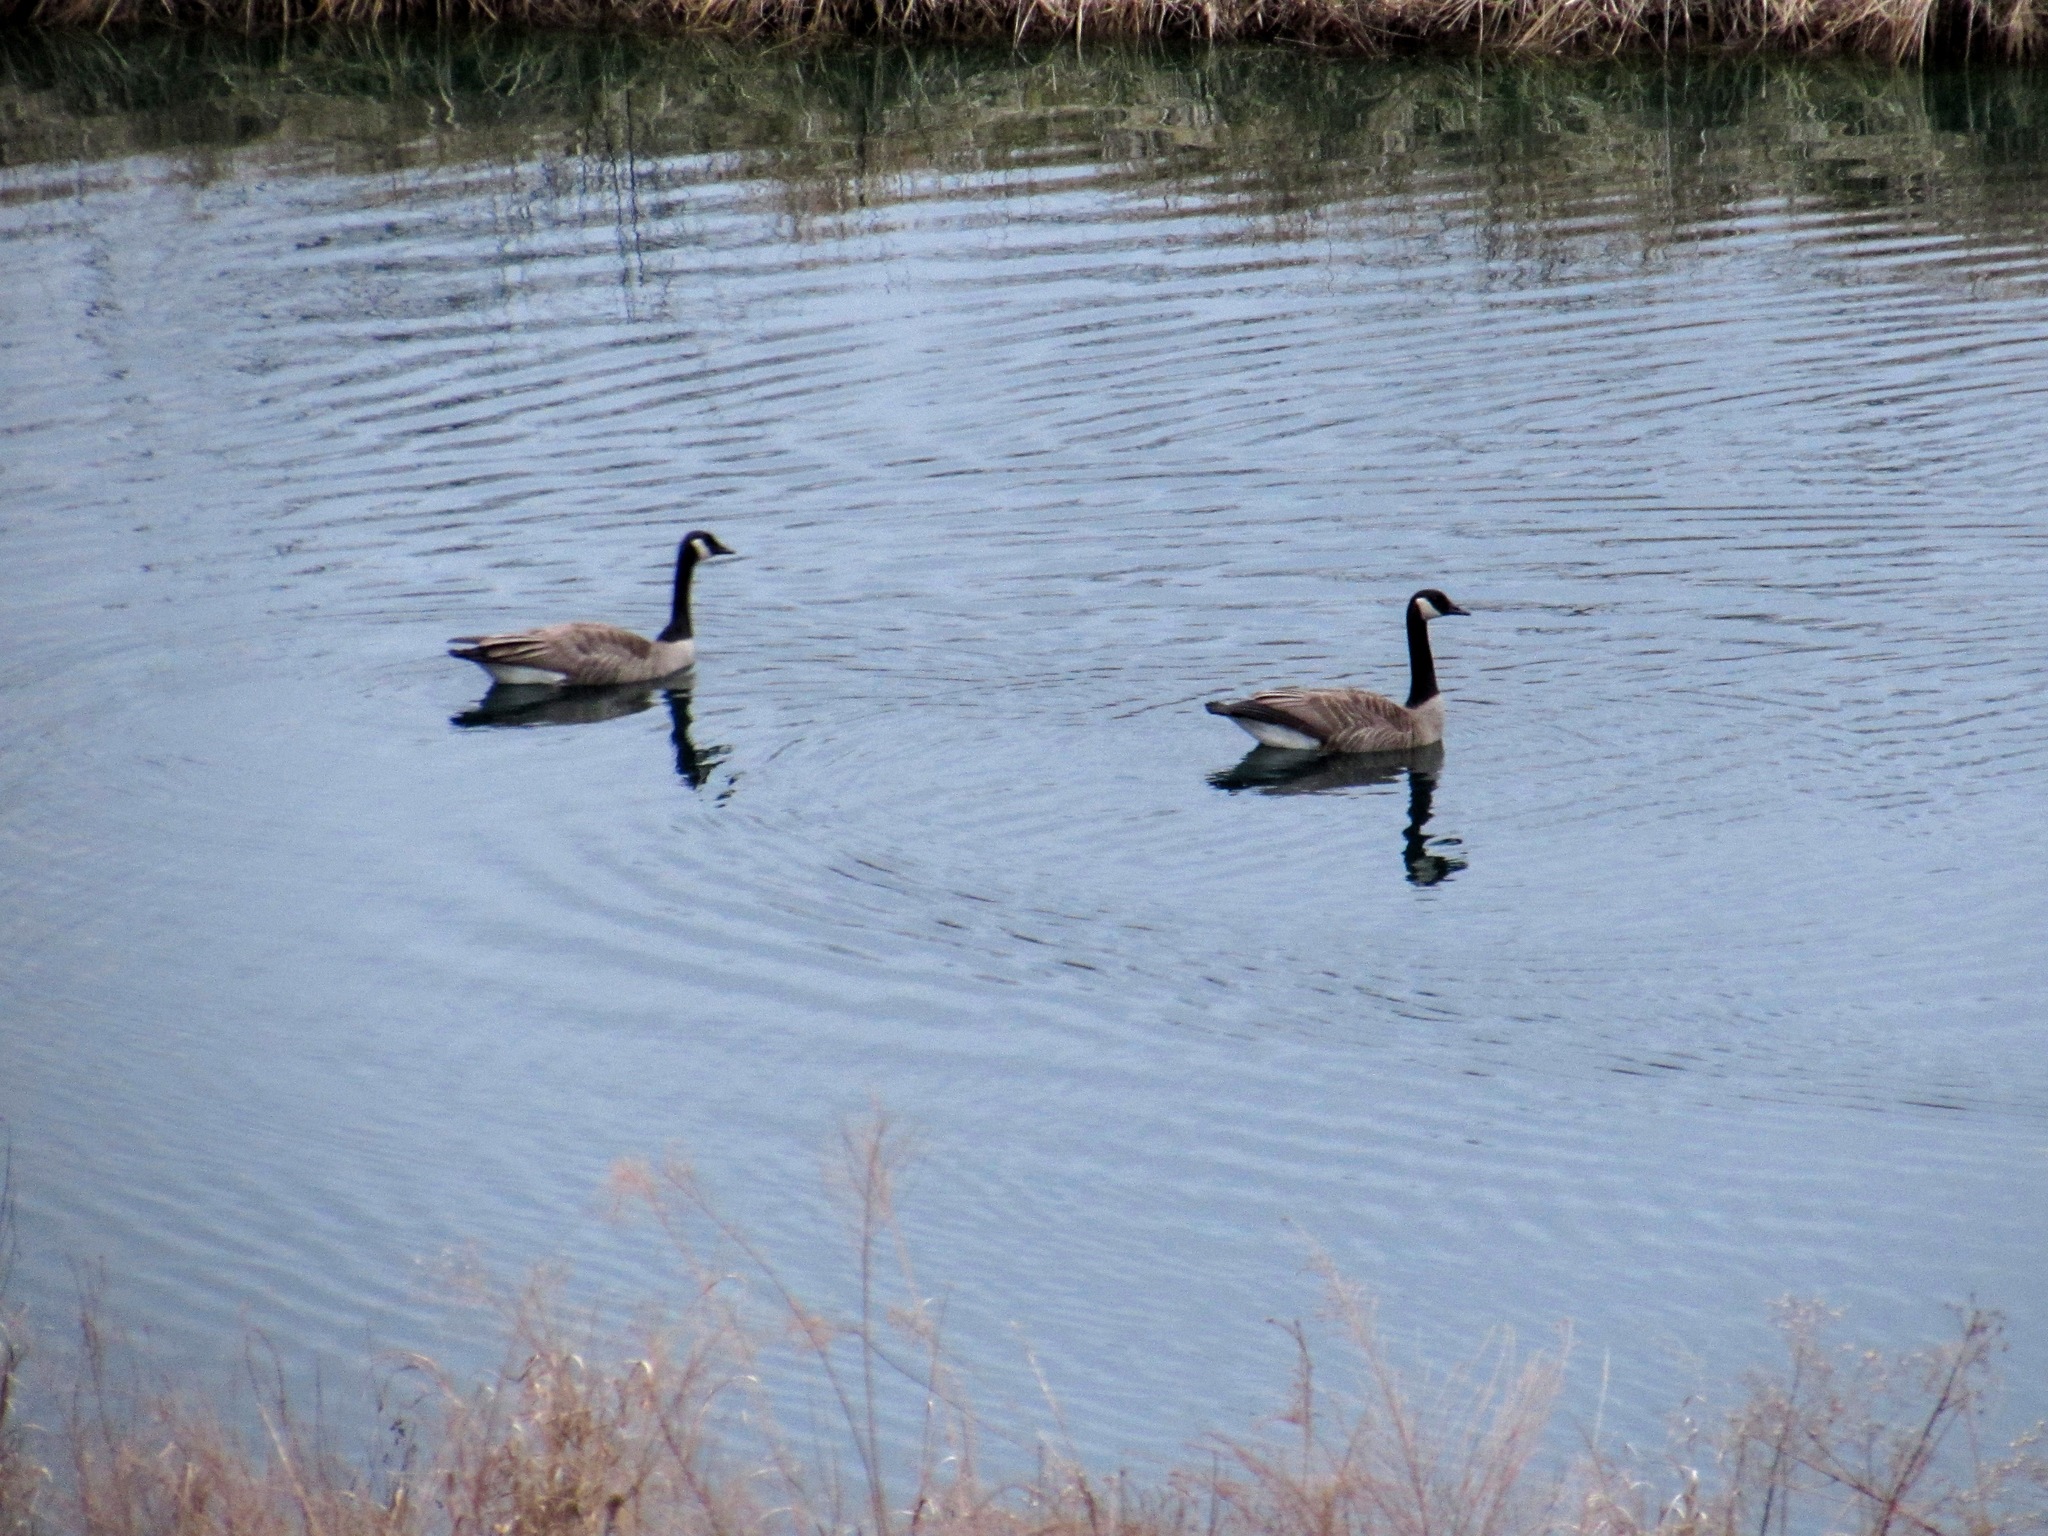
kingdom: Animalia
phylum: Chordata
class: Aves
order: Anseriformes
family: Anatidae
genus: Branta
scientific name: Branta canadensis
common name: Canada goose
